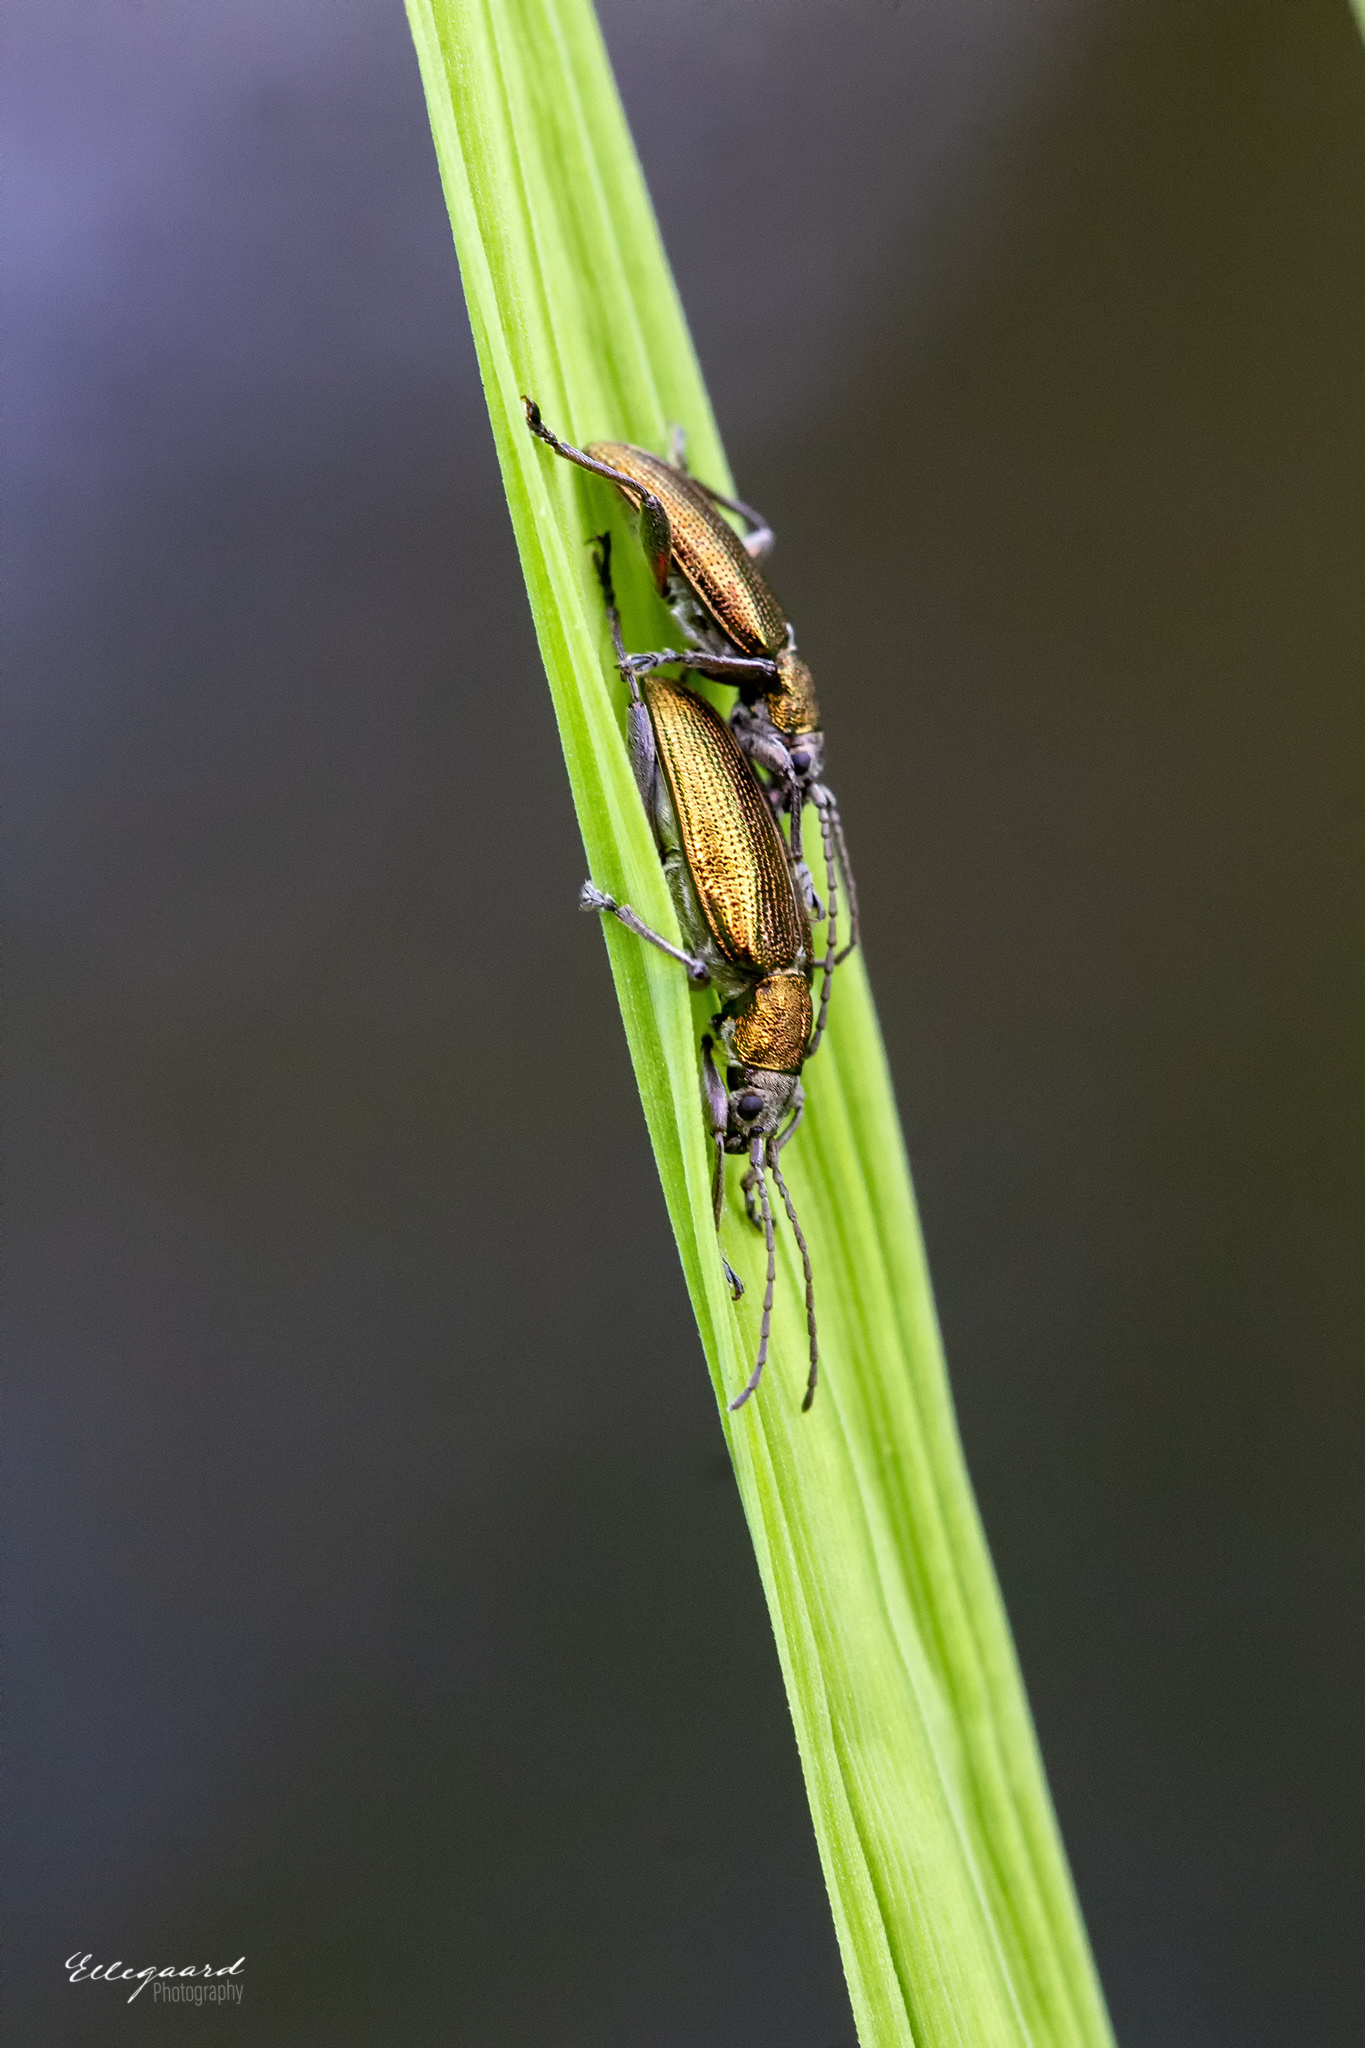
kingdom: Animalia
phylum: Arthropoda
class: Insecta
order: Coleoptera
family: Chrysomelidae
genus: Donacia
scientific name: Donacia semicuprea
